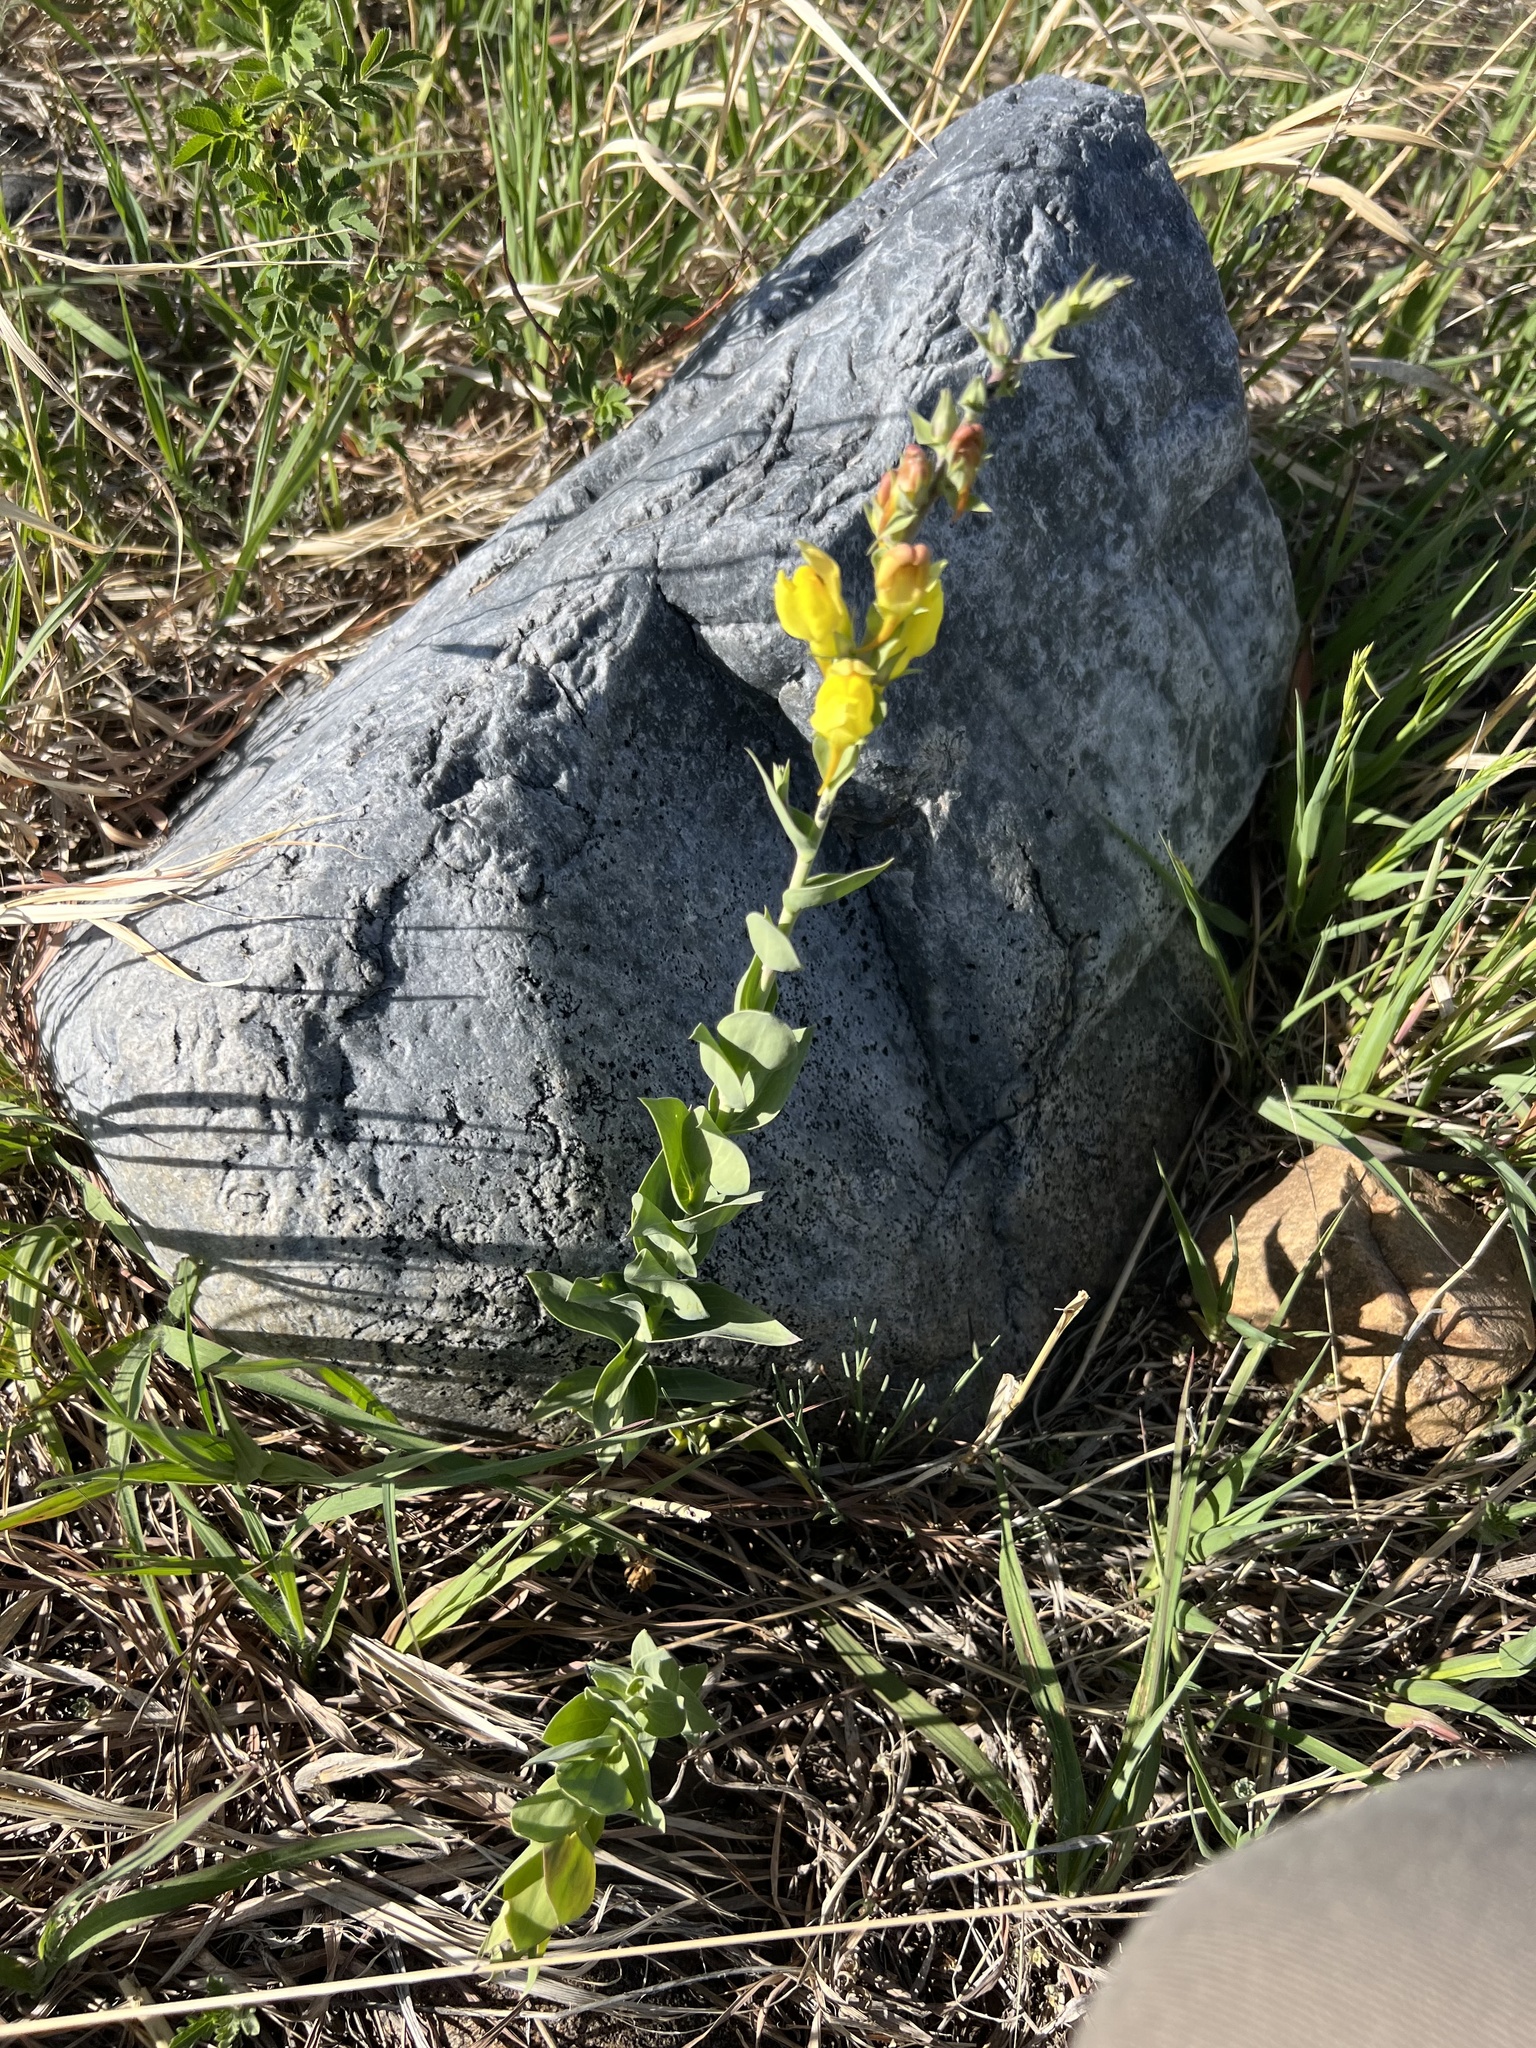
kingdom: Plantae
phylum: Tracheophyta
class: Magnoliopsida
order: Lamiales
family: Plantaginaceae
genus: Linaria
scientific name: Linaria dalmatica
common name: Dalmatian toadflax
